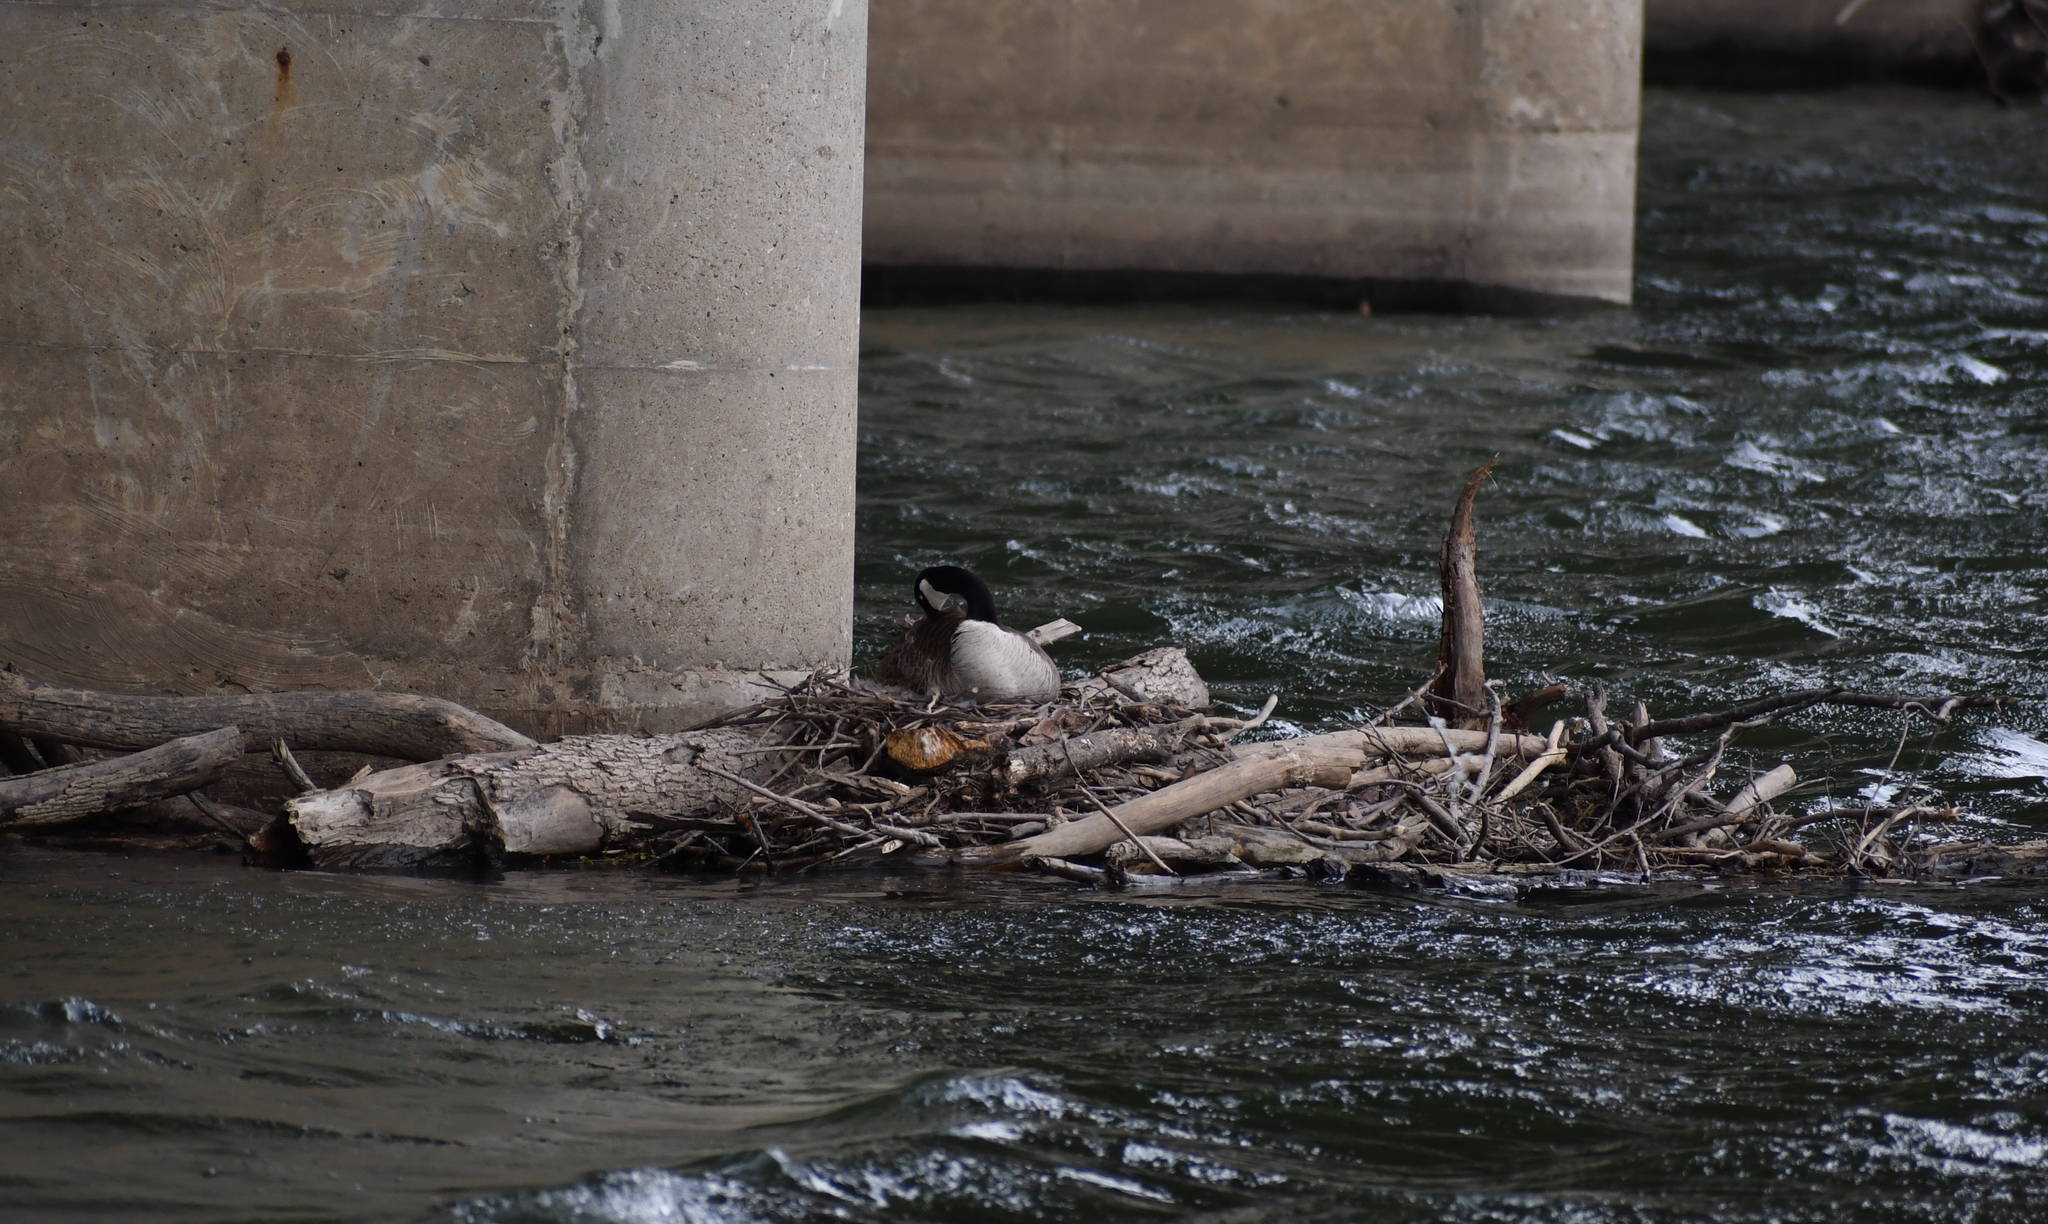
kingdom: Animalia
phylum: Chordata
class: Aves
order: Anseriformes
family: Anatidae
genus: Branta
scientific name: Branta canadensis
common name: Canada goose
